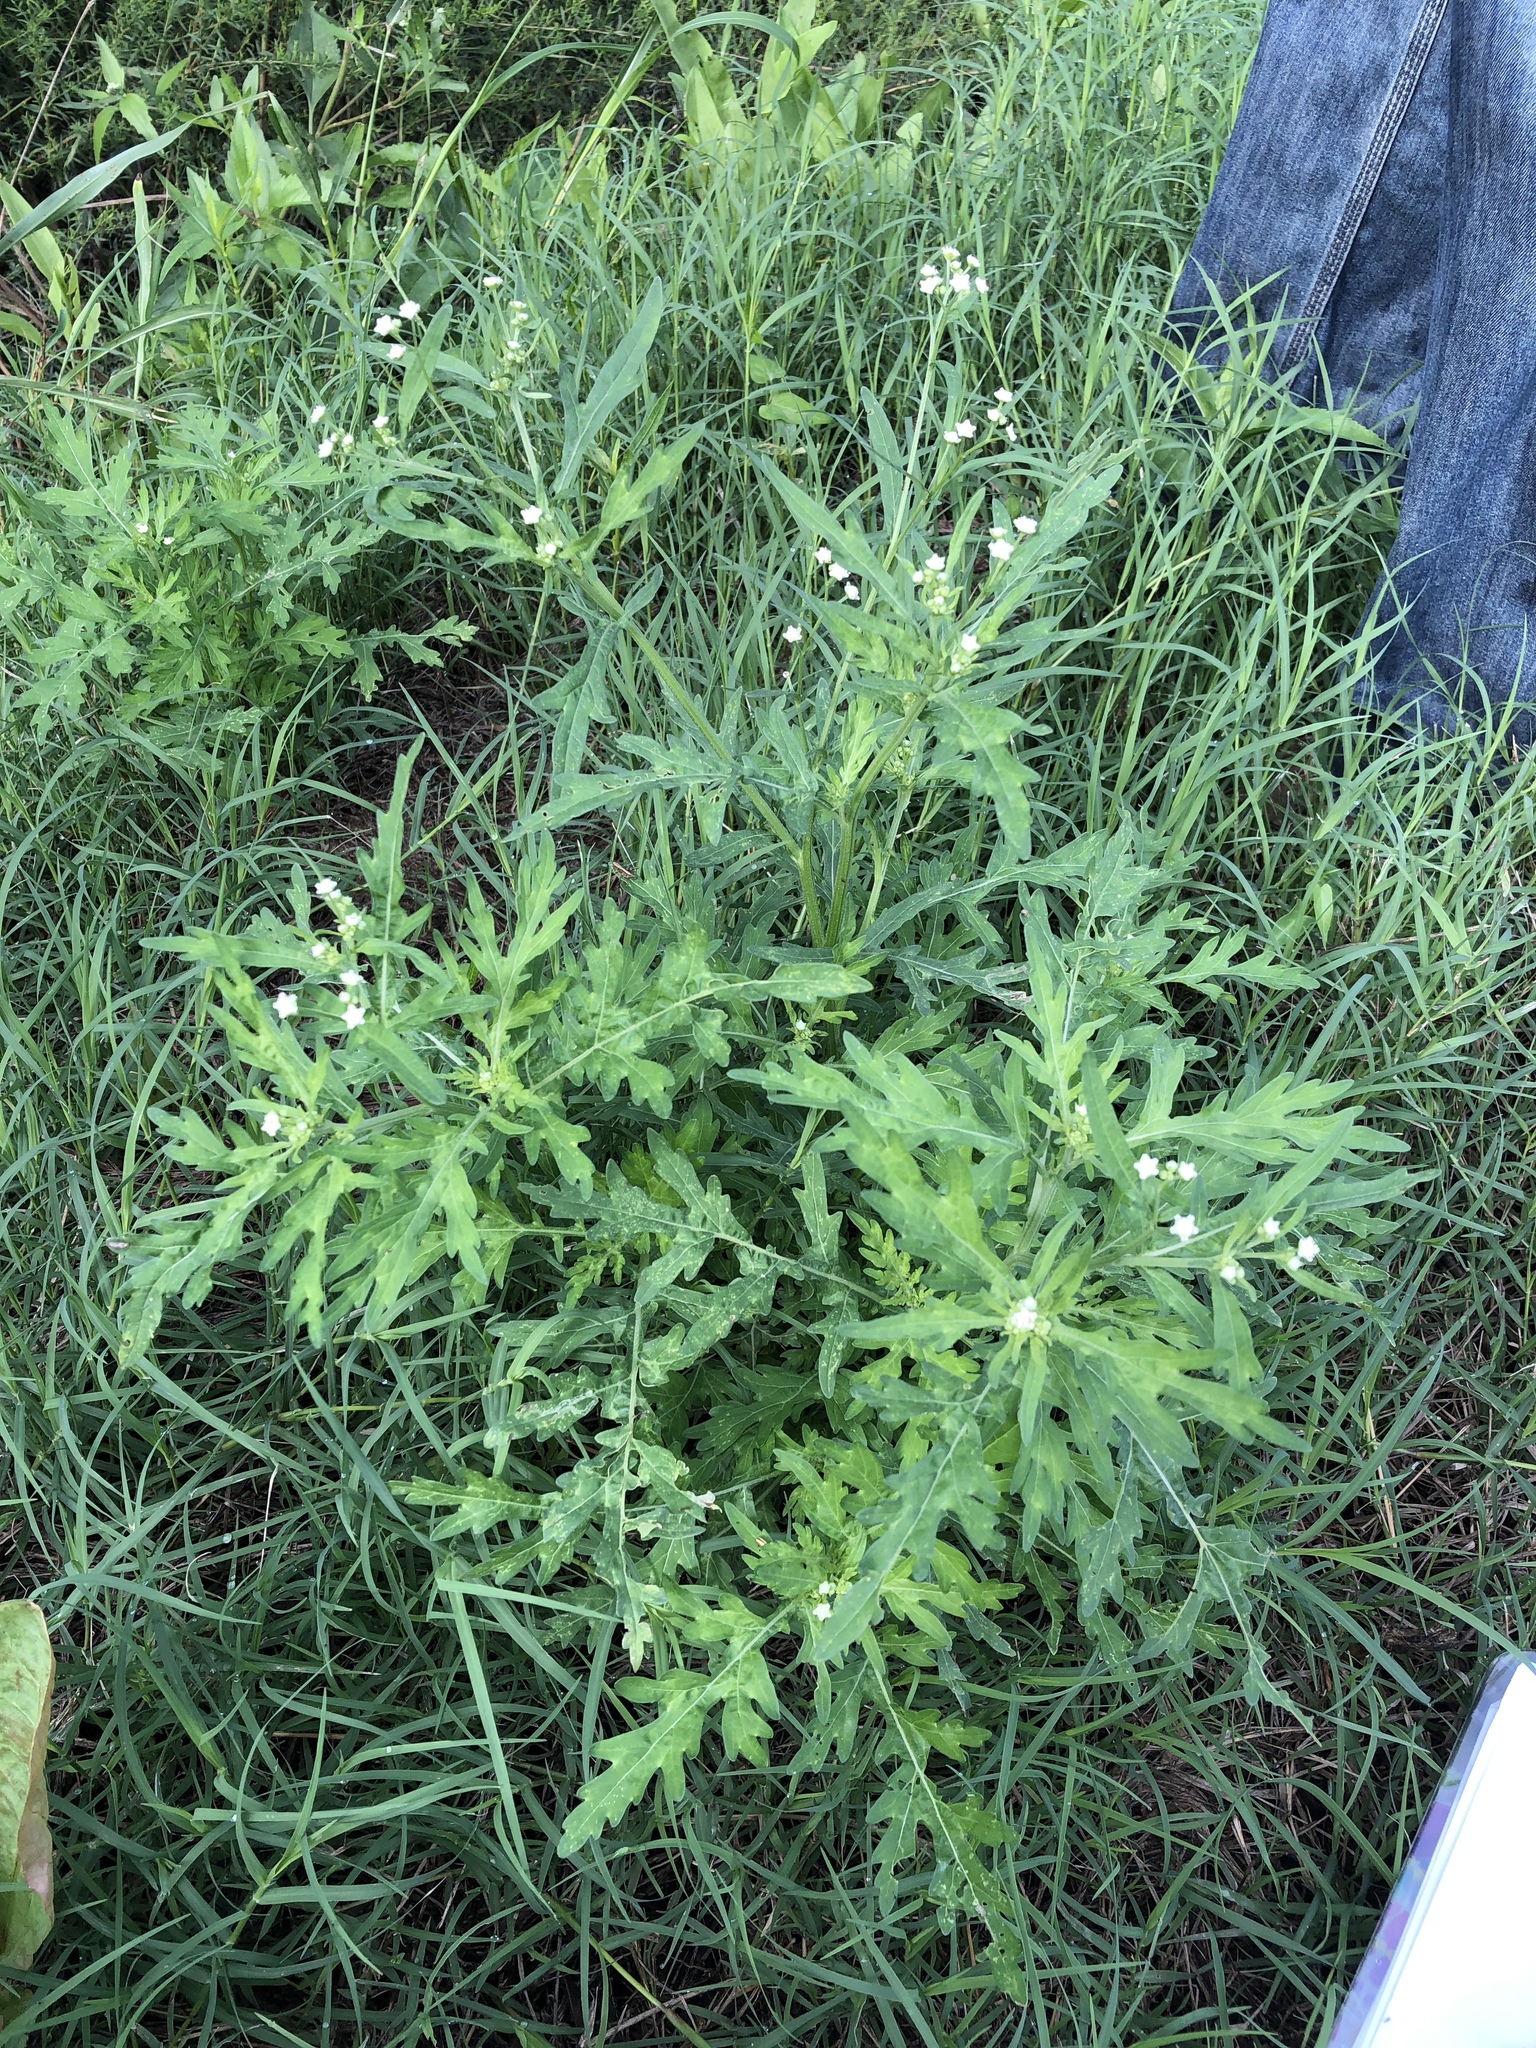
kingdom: Plantae
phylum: Tracheophyta
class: Magnoliopsida
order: Asterales
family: Asteraceae
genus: Parthenium
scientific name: Parthenium hysterophorus
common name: Santa maria feverfew
